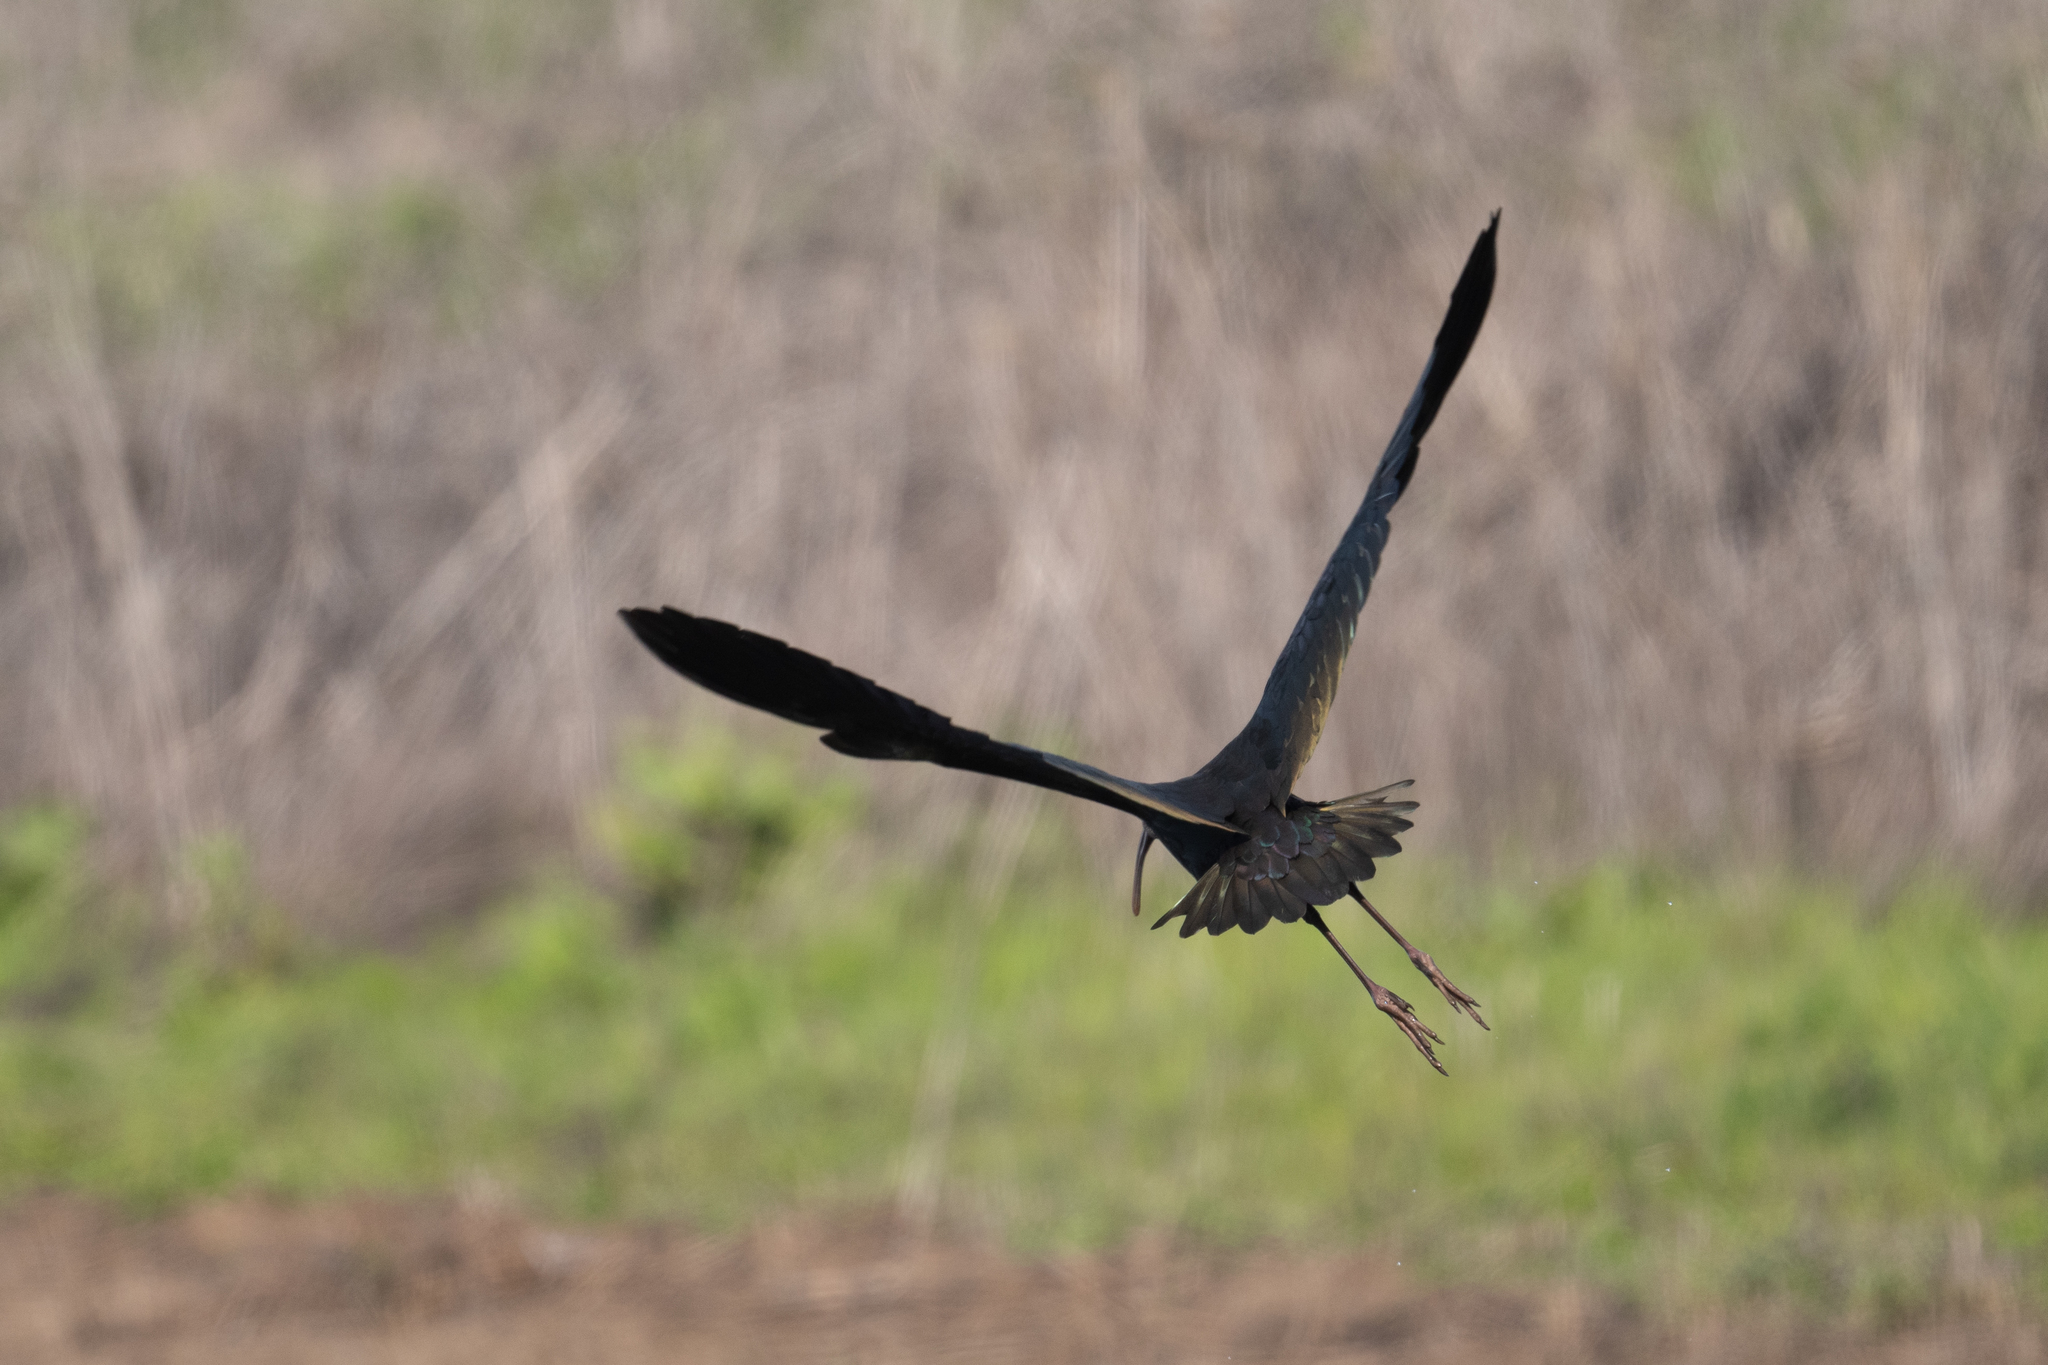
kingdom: Animalia
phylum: Chordata
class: Aves
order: Pelecaniformes
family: Threskiornithidae
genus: Plegadis
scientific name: Plegadis chihi
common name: White-faced ibis
